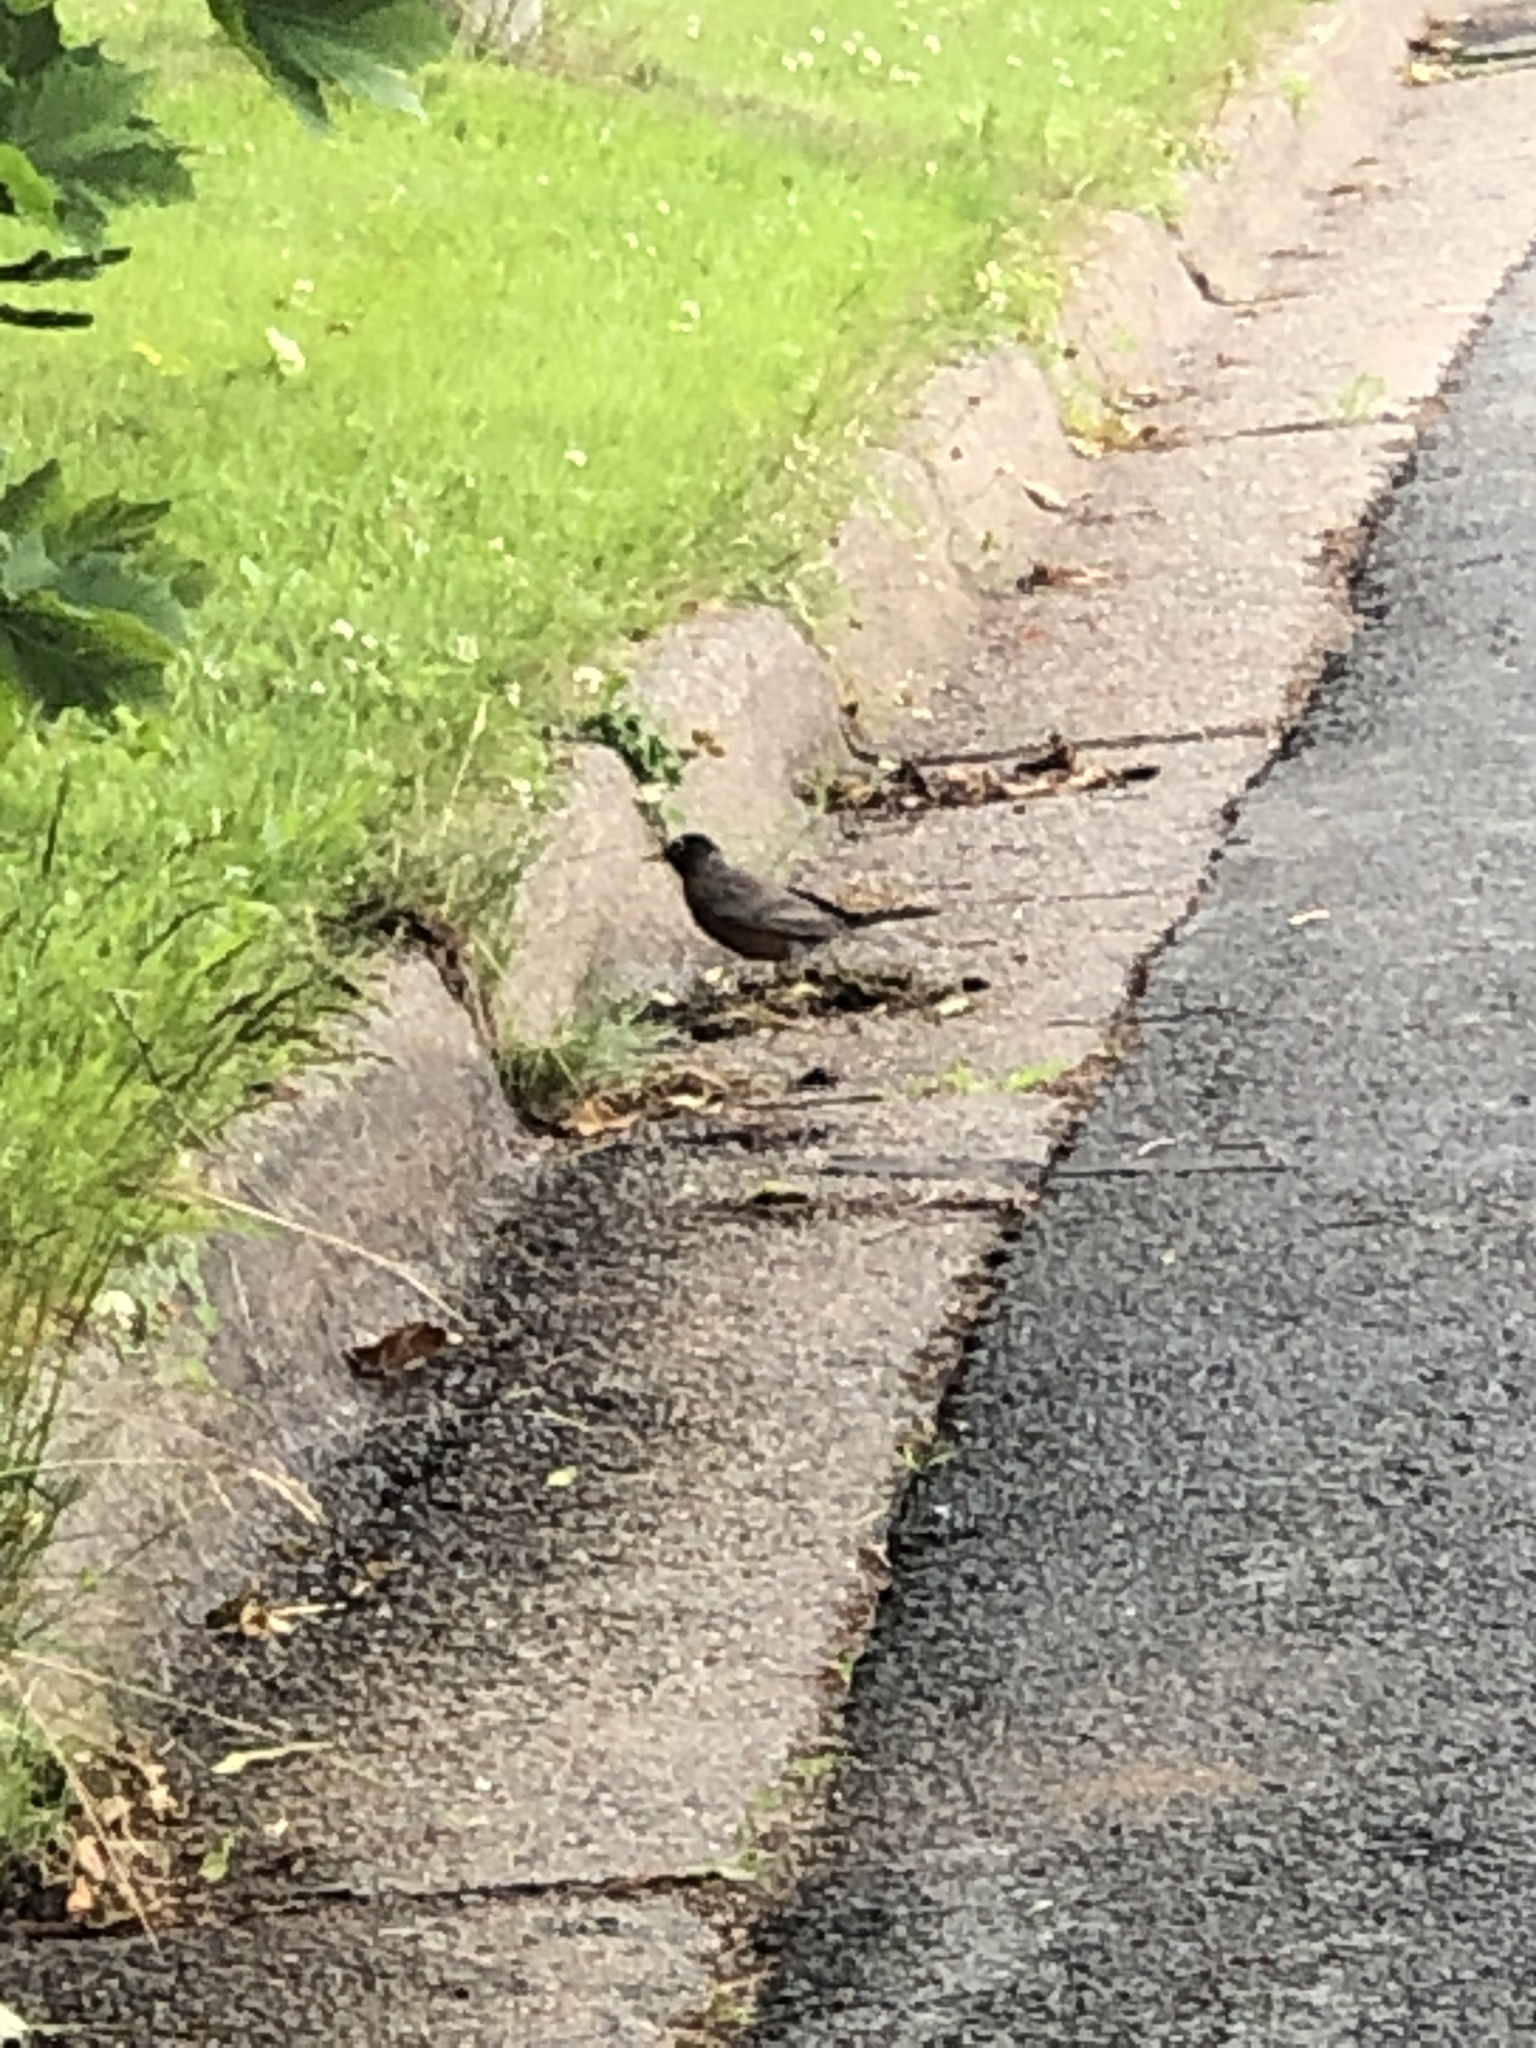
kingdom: Animalia
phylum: Chordata
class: Aves
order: Passeriformes
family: Turdidae
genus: Turdus
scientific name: Turdus migratorius
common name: American robin
